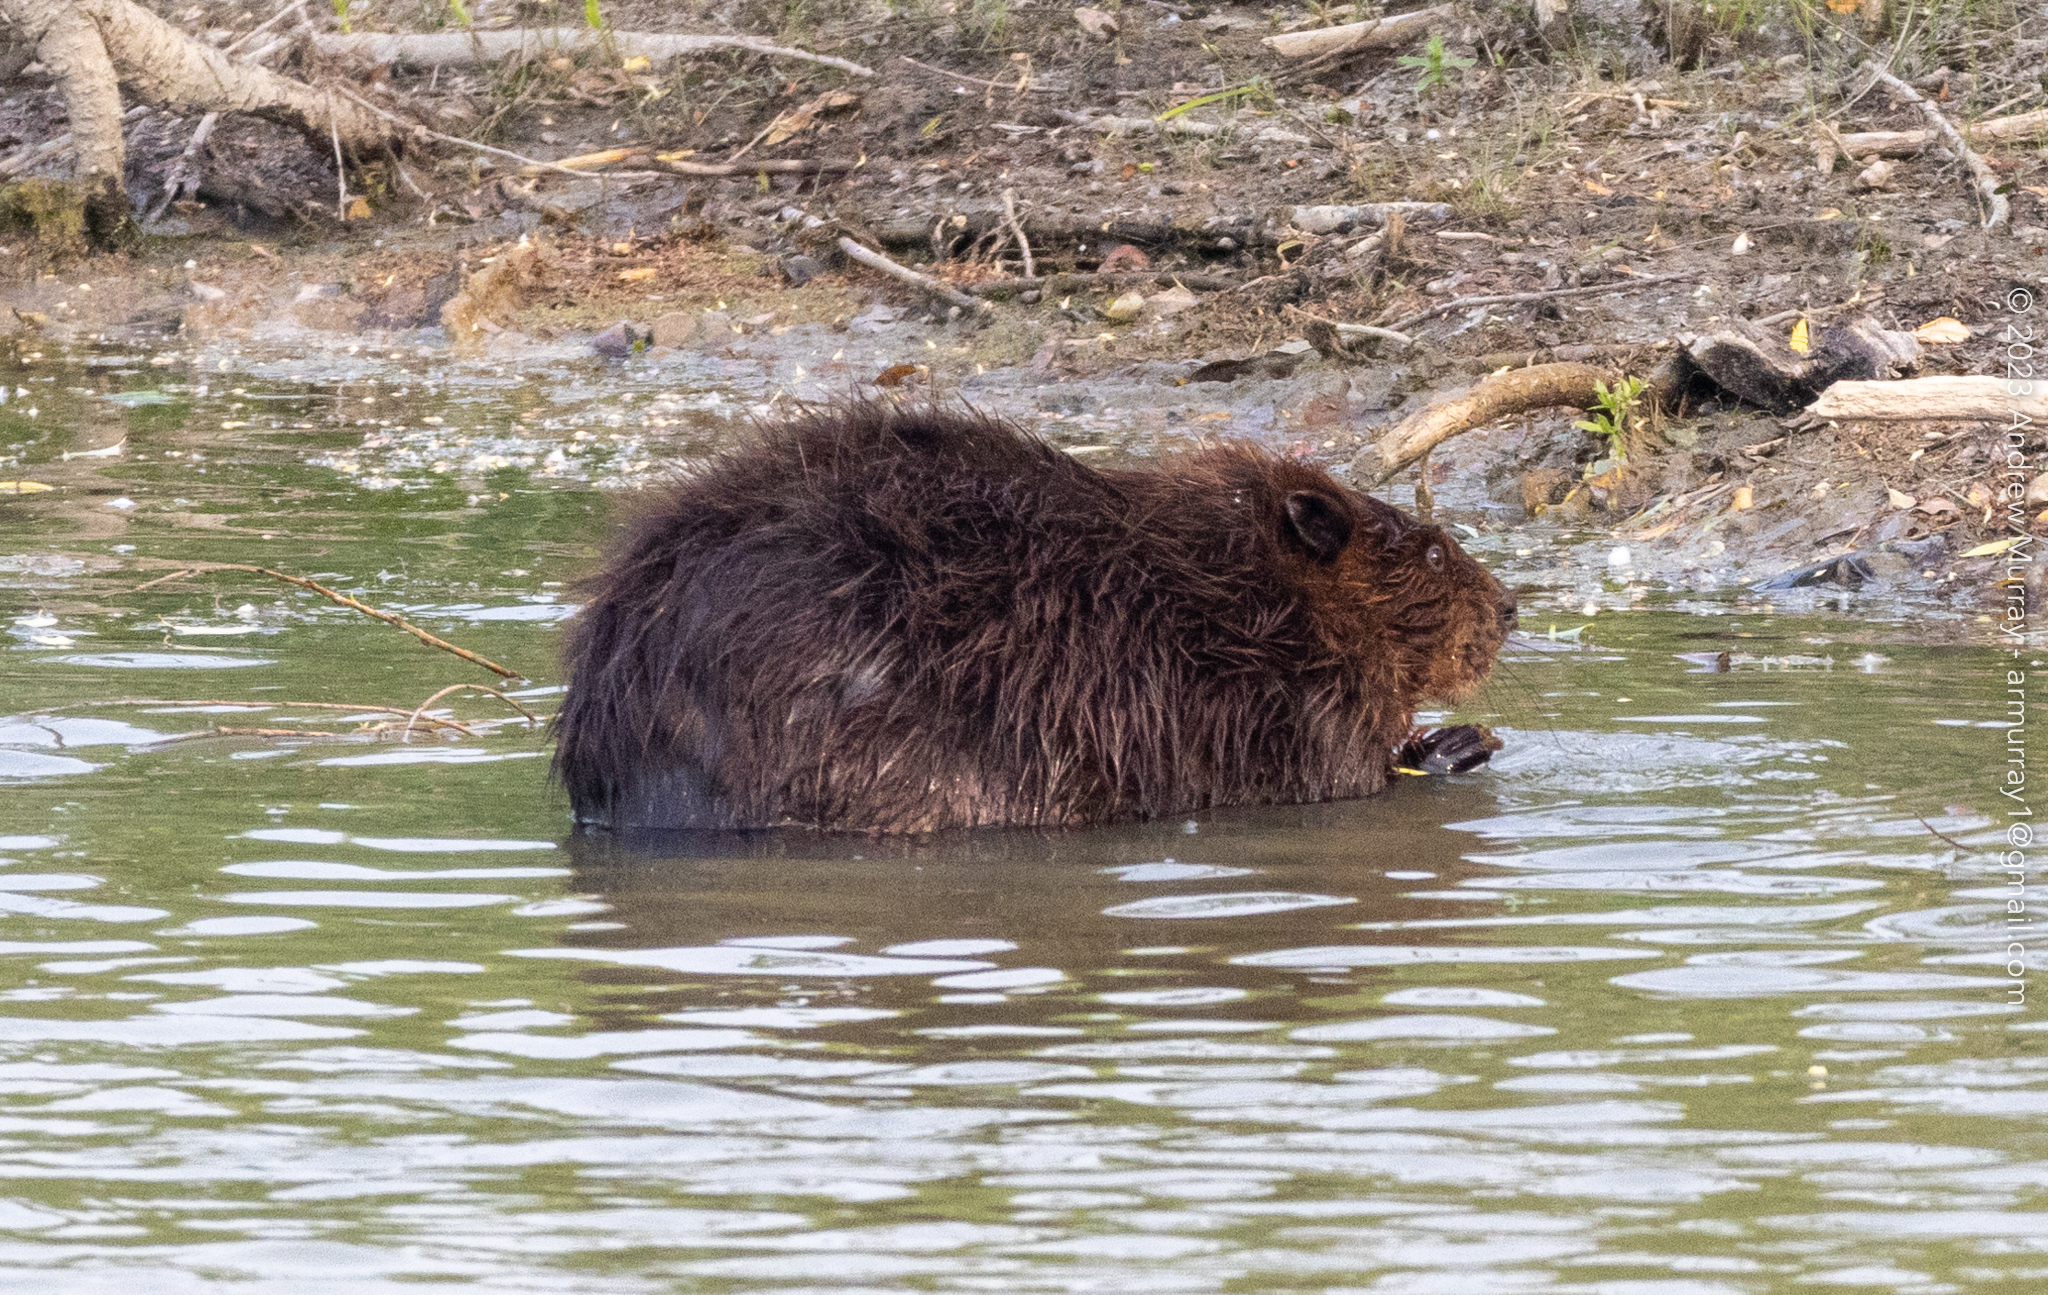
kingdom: Animalia
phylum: Chordata
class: Mammalia
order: Rodentia
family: Castoridae
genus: Castor
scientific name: Castor canadensis
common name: American beaver
